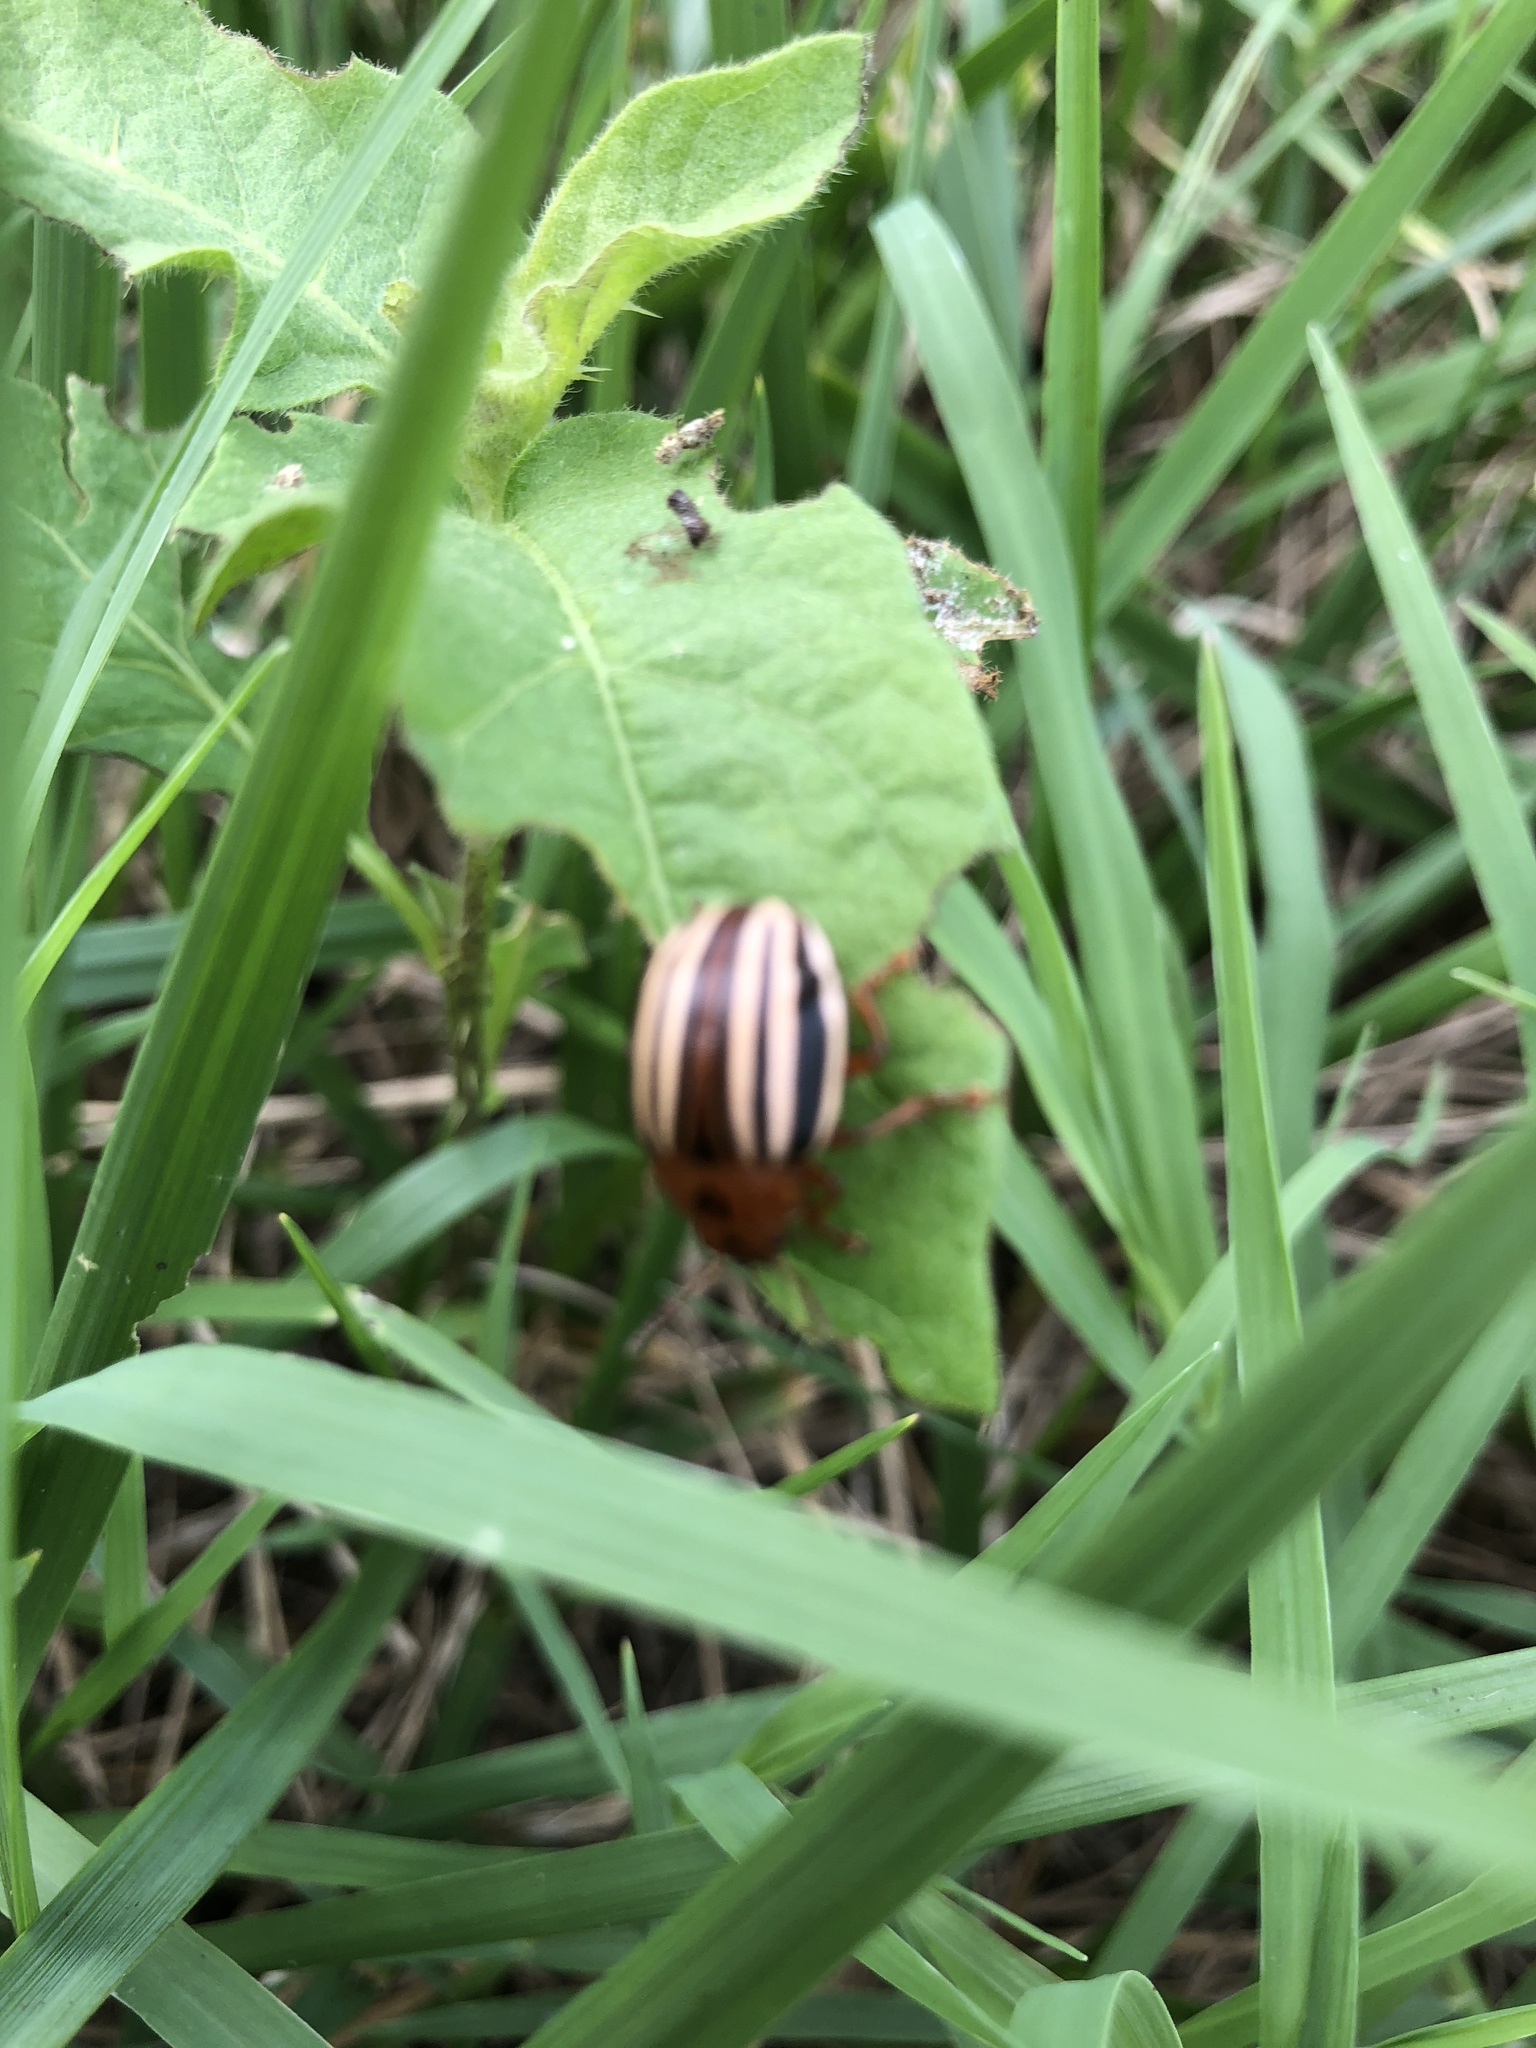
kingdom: Animalia
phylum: Arthropoda
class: Insecta
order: Coleoptera
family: Chrysomelidae
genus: Leptinotarsa
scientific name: Leptinotarsa juncta
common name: False potato beetle
